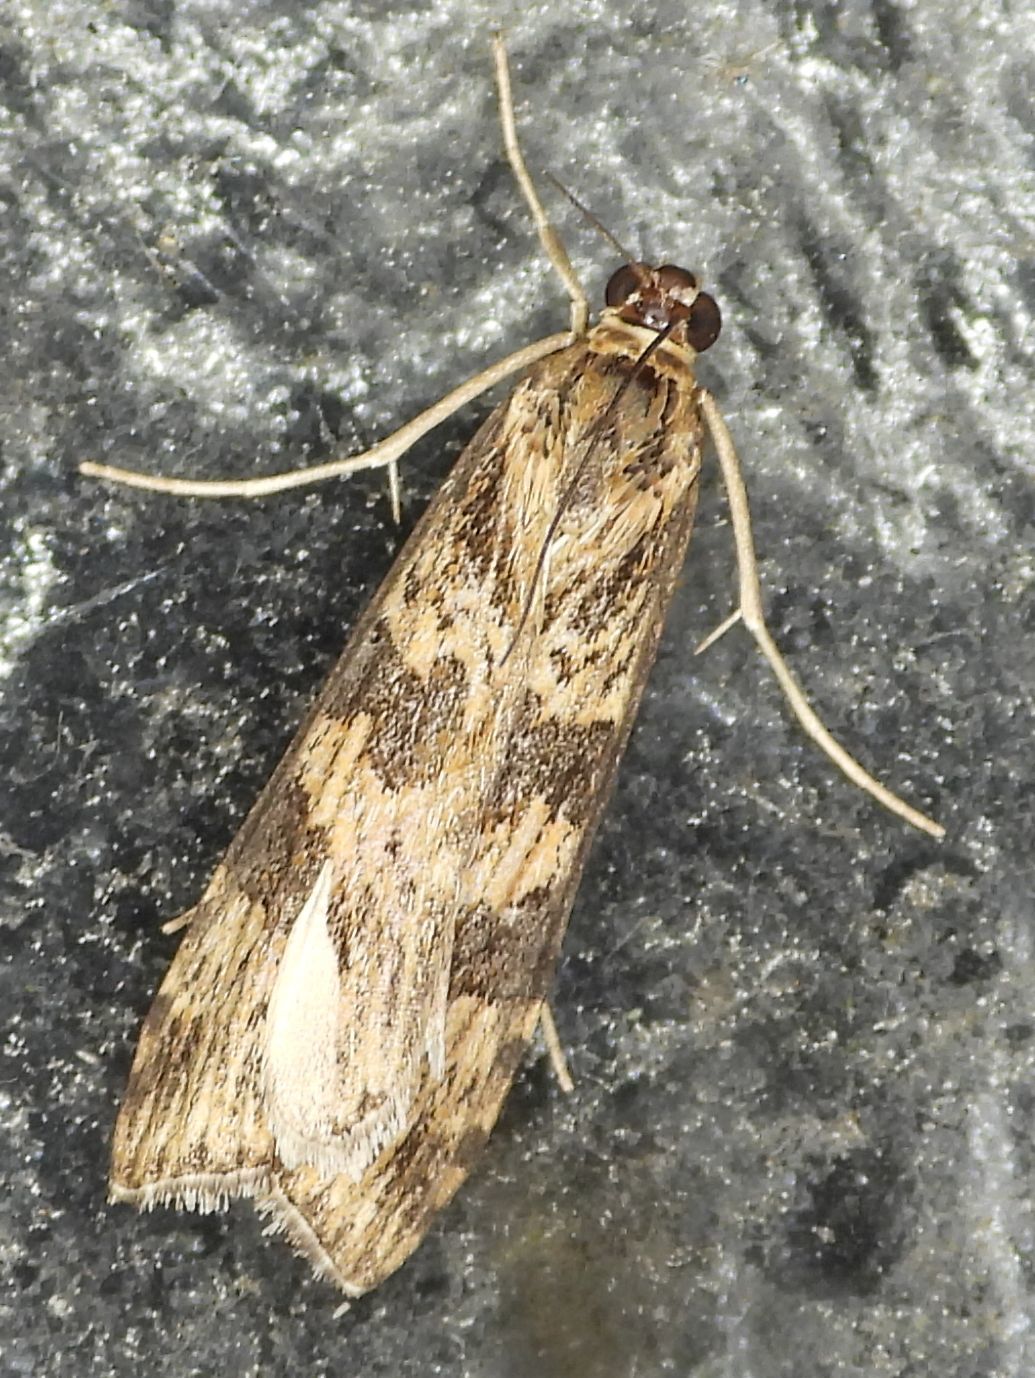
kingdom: Animalia
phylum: Arthropoda
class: Insecta
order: Lepidoptera
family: Crambidae
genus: Nomophila
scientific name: Nomophila nearctica
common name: American rush veneer
